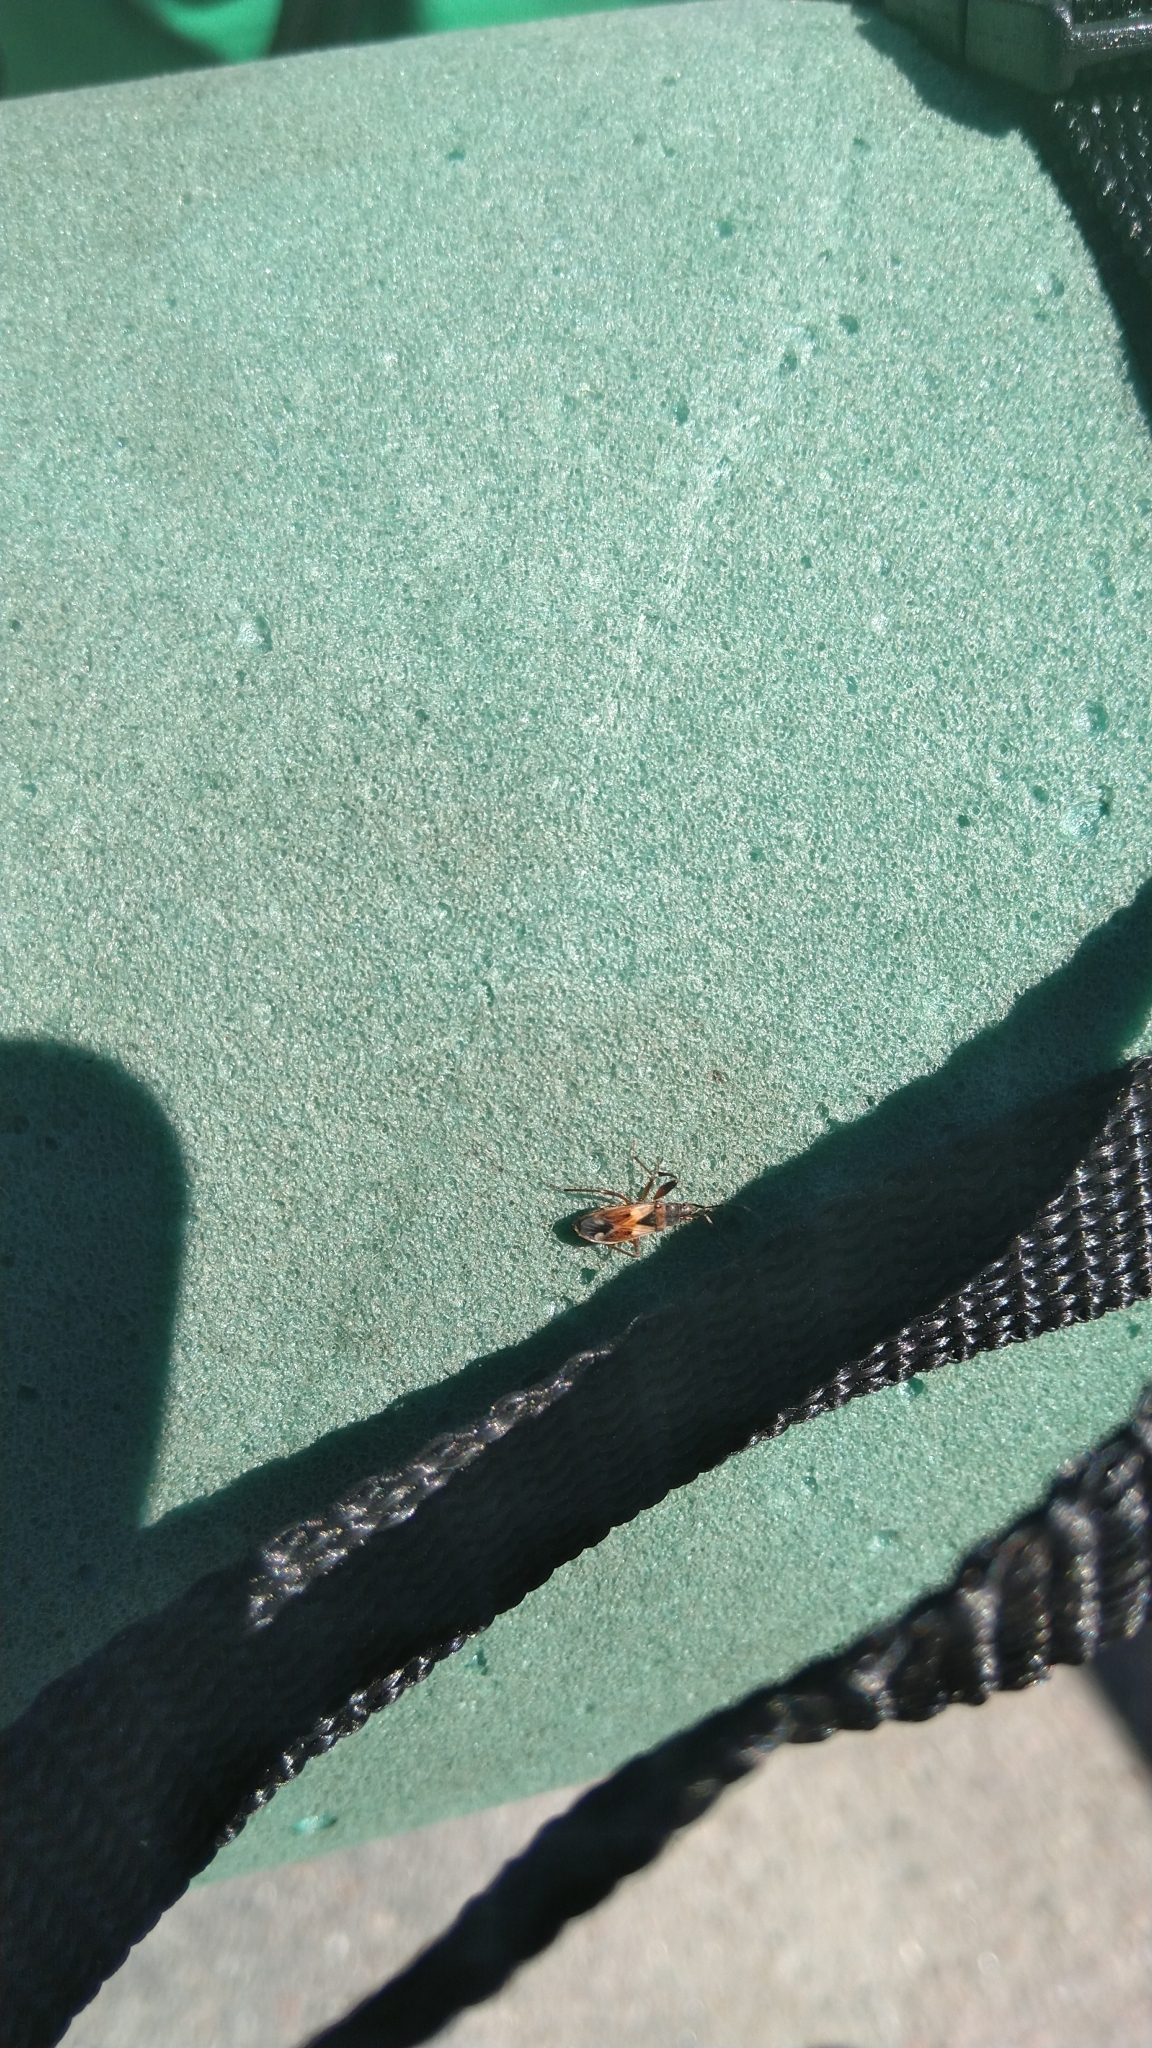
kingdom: Animalia
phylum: Arthropoda
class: Insecta
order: Hemiptera
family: Rhyparochromidae
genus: Eremocoris
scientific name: Eremocoris abietis
